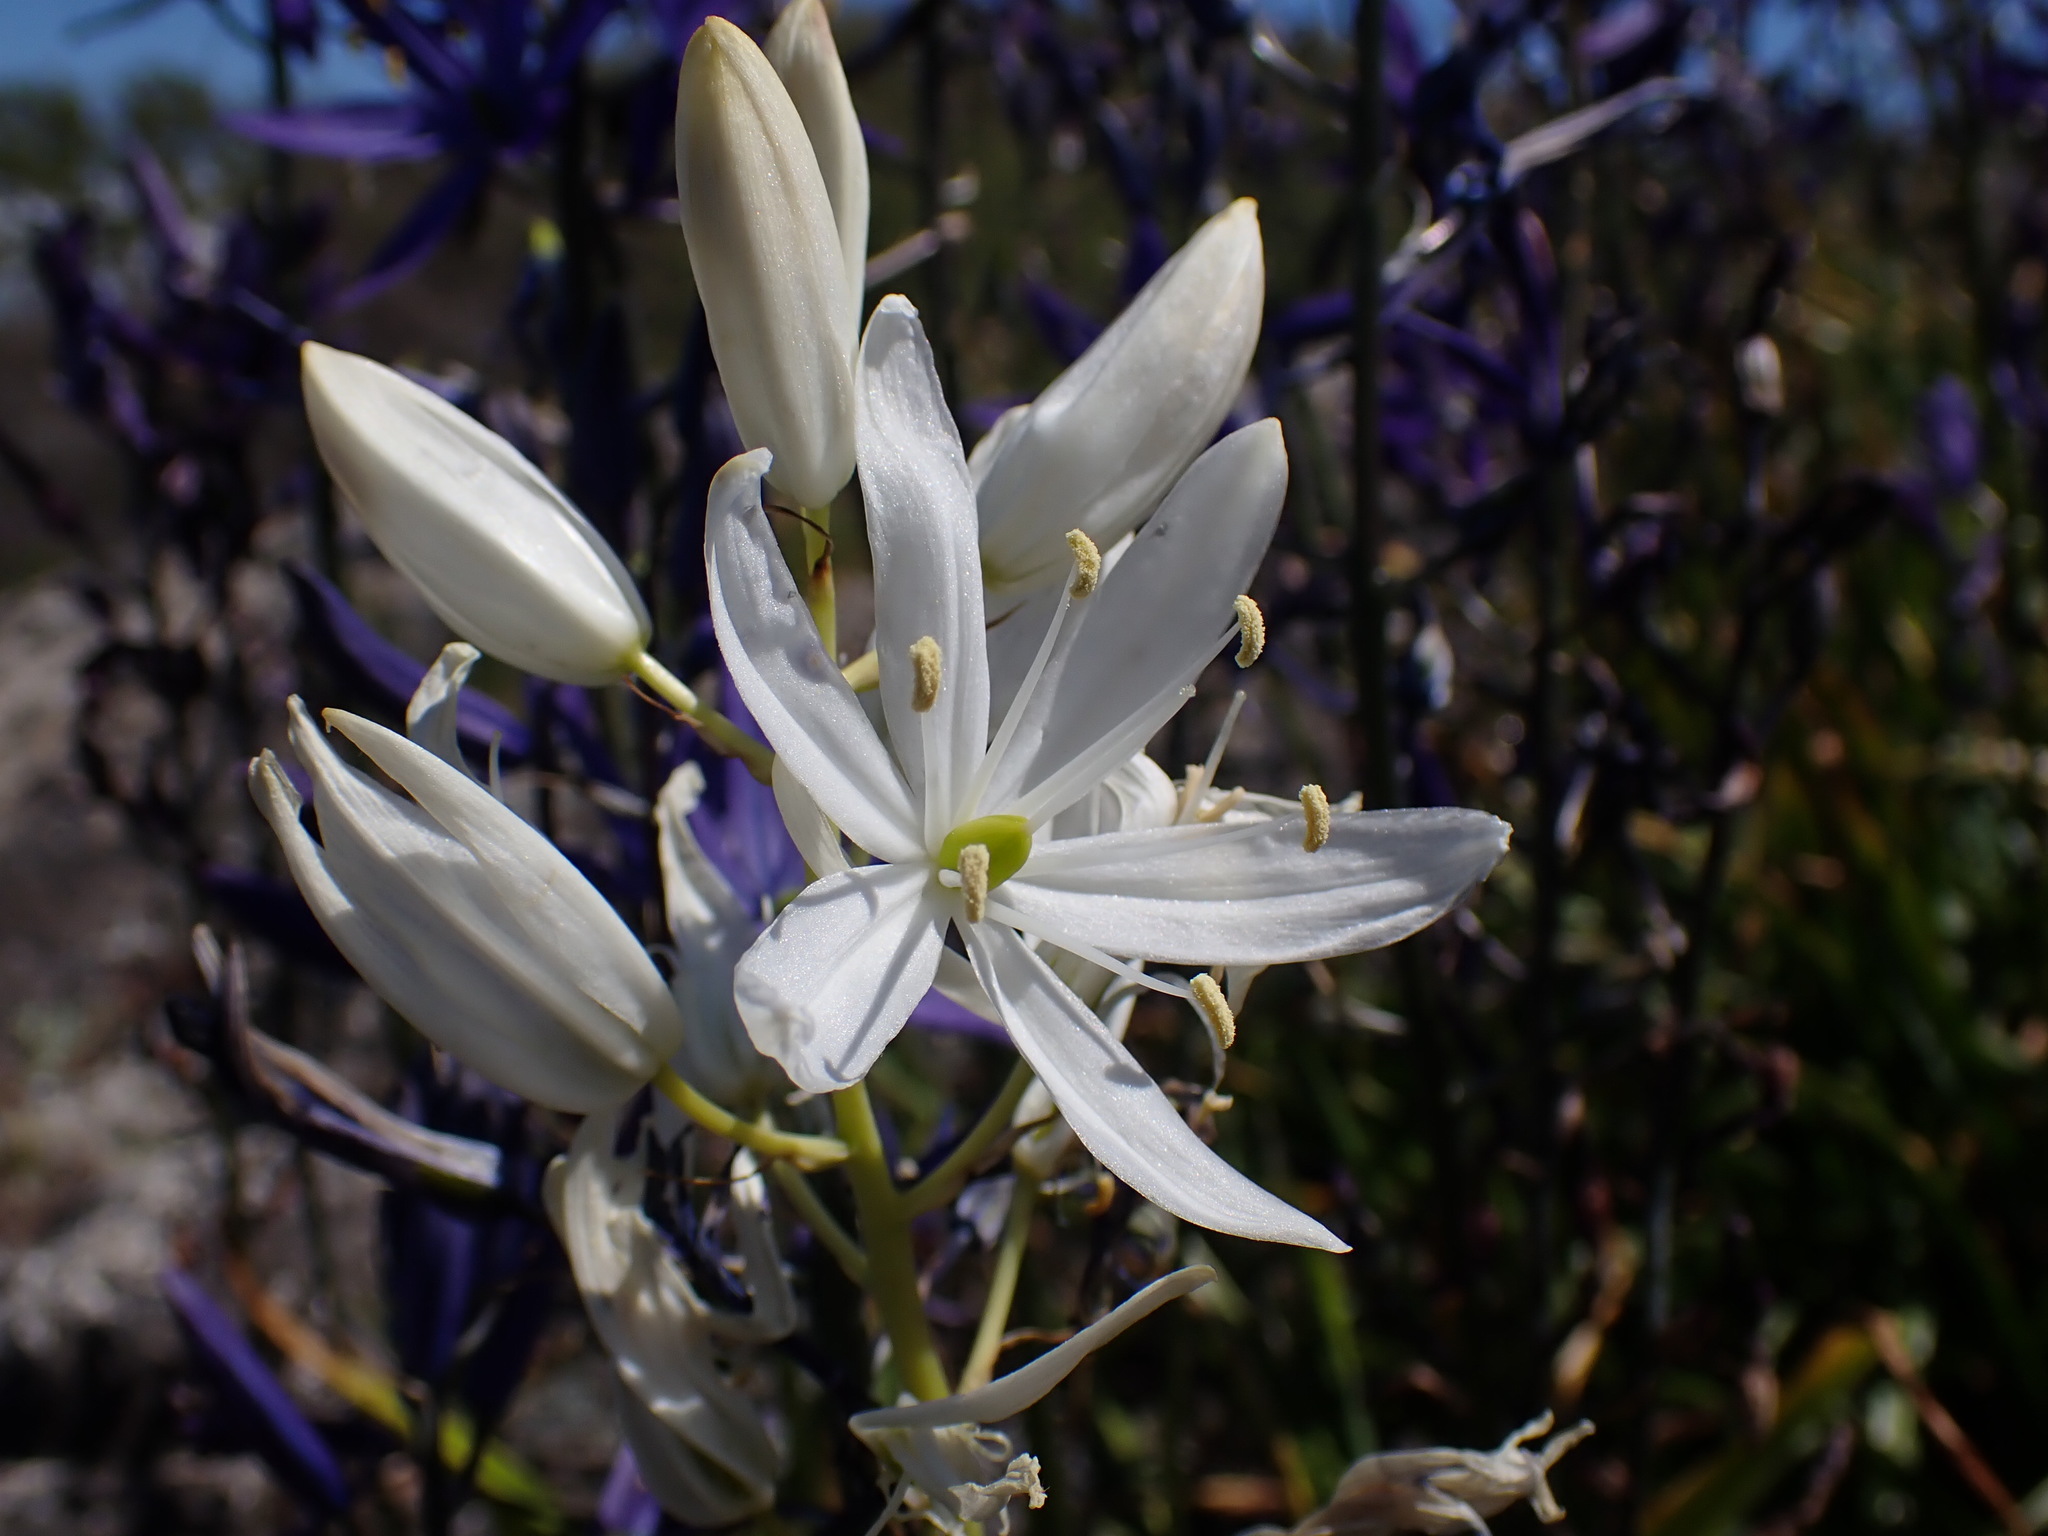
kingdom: Plantae
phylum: Tracheophyta
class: Liliopsida
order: Asparagales
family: Asparagaceae
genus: Camassia
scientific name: Camassia leichtlinii
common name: Leichtlin's camas
